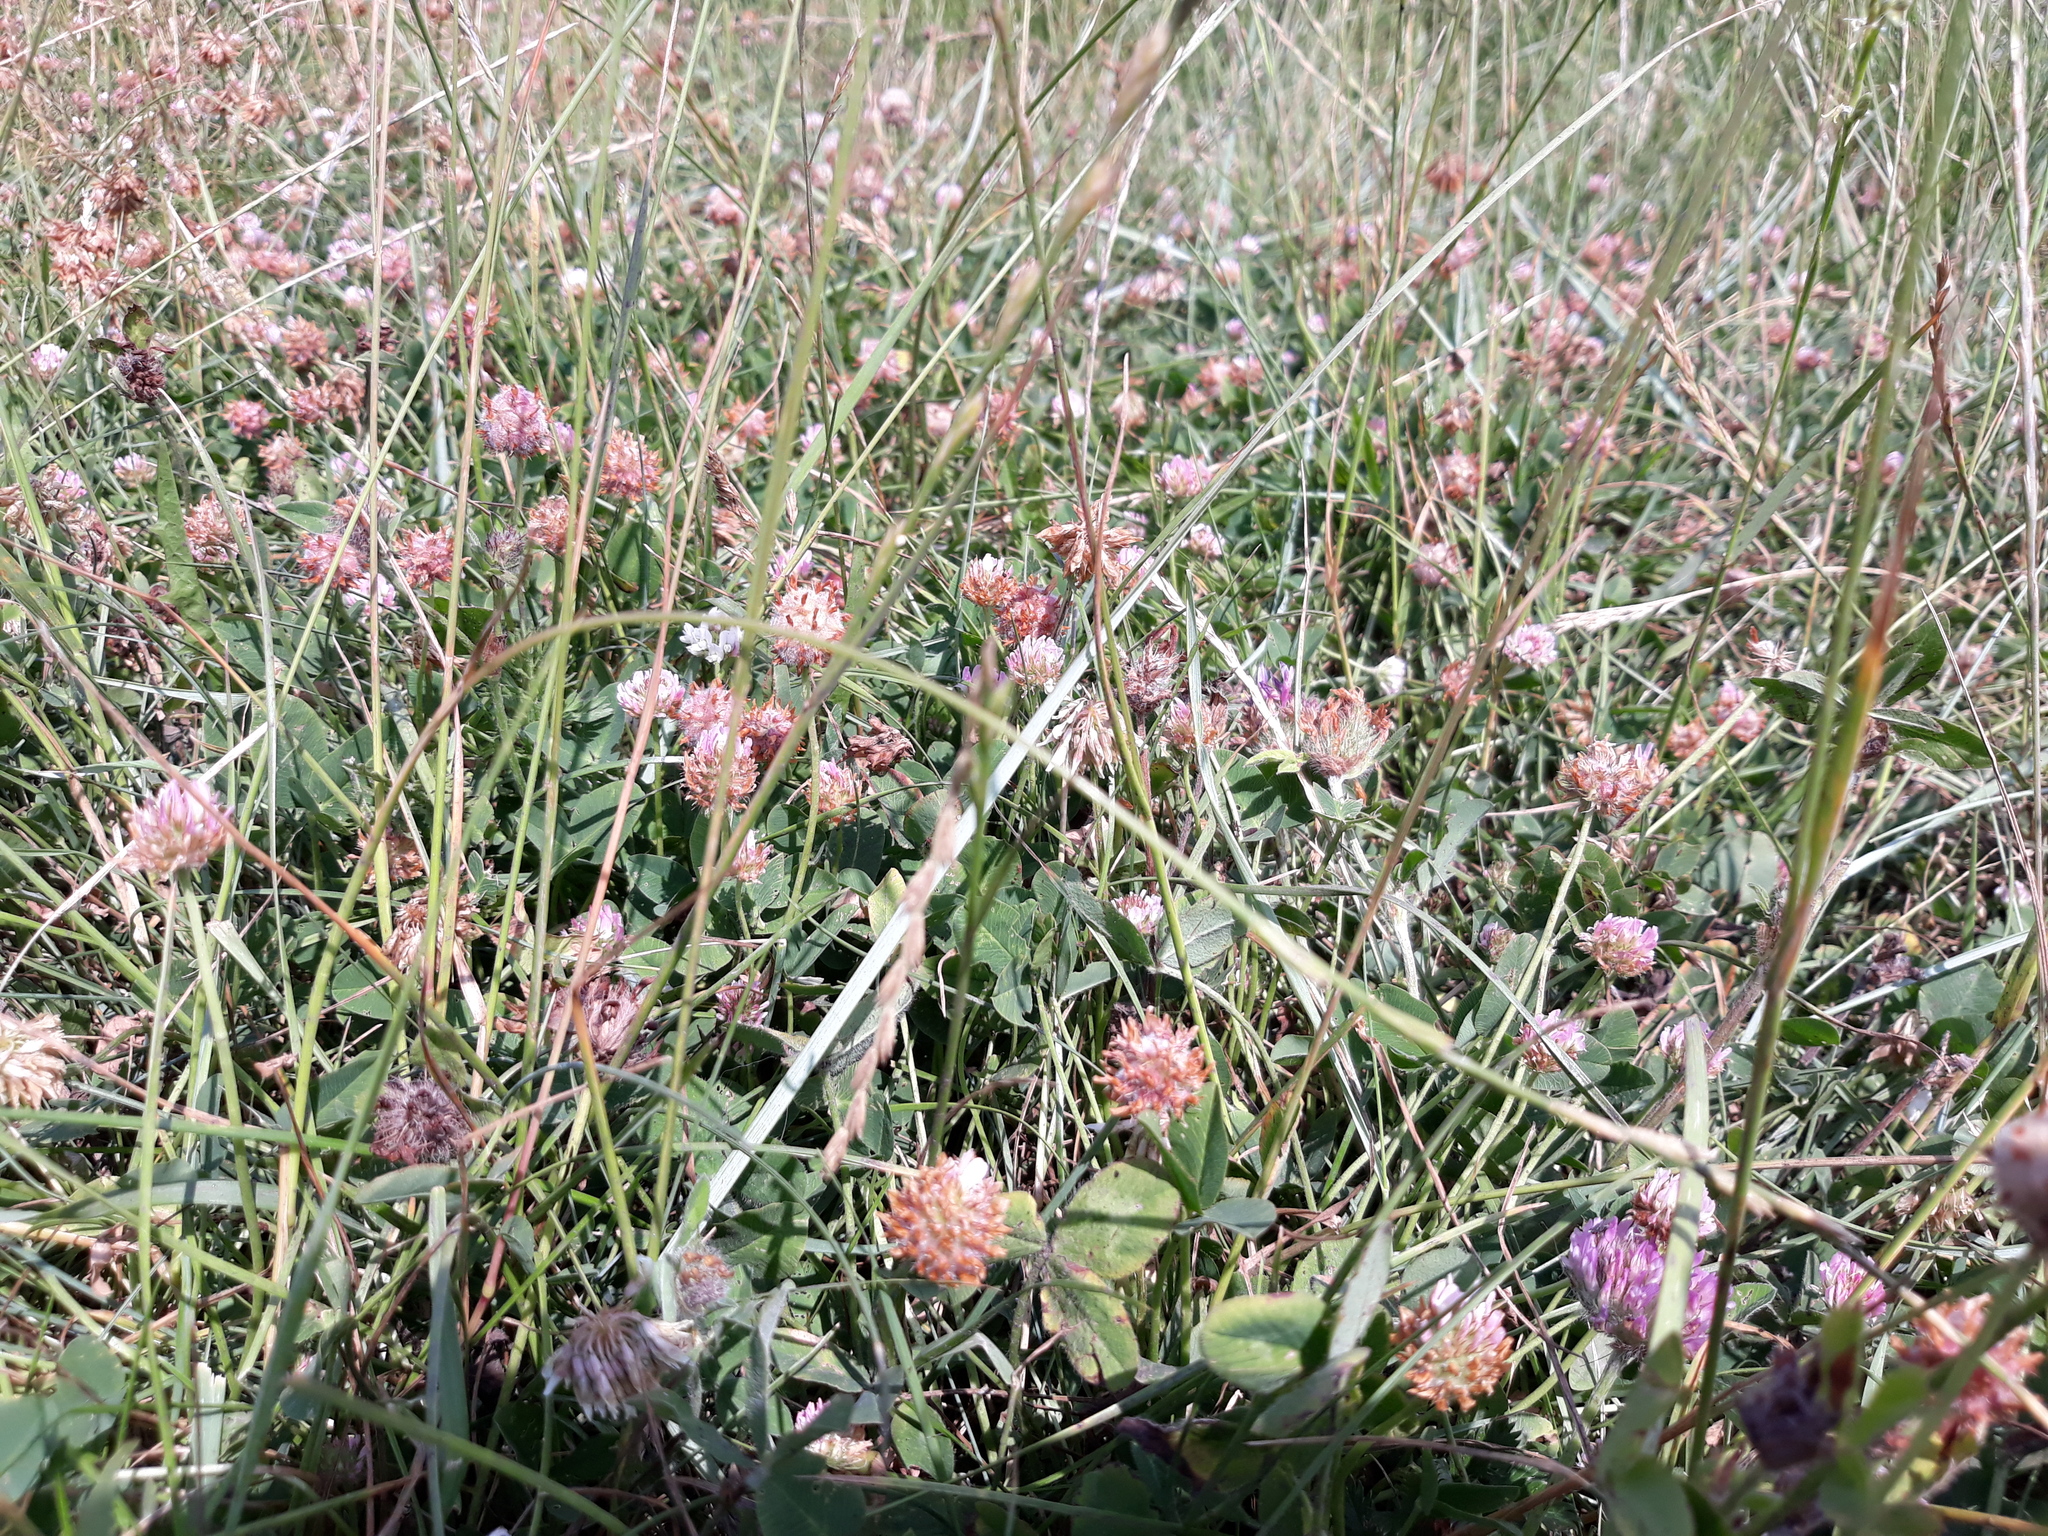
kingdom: Plantae
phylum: Tracheophyta
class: Magnoliopsida
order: Fabales
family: Fabaceae
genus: Trifolium
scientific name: Trifolium fragiferum
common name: Strawberry clover
